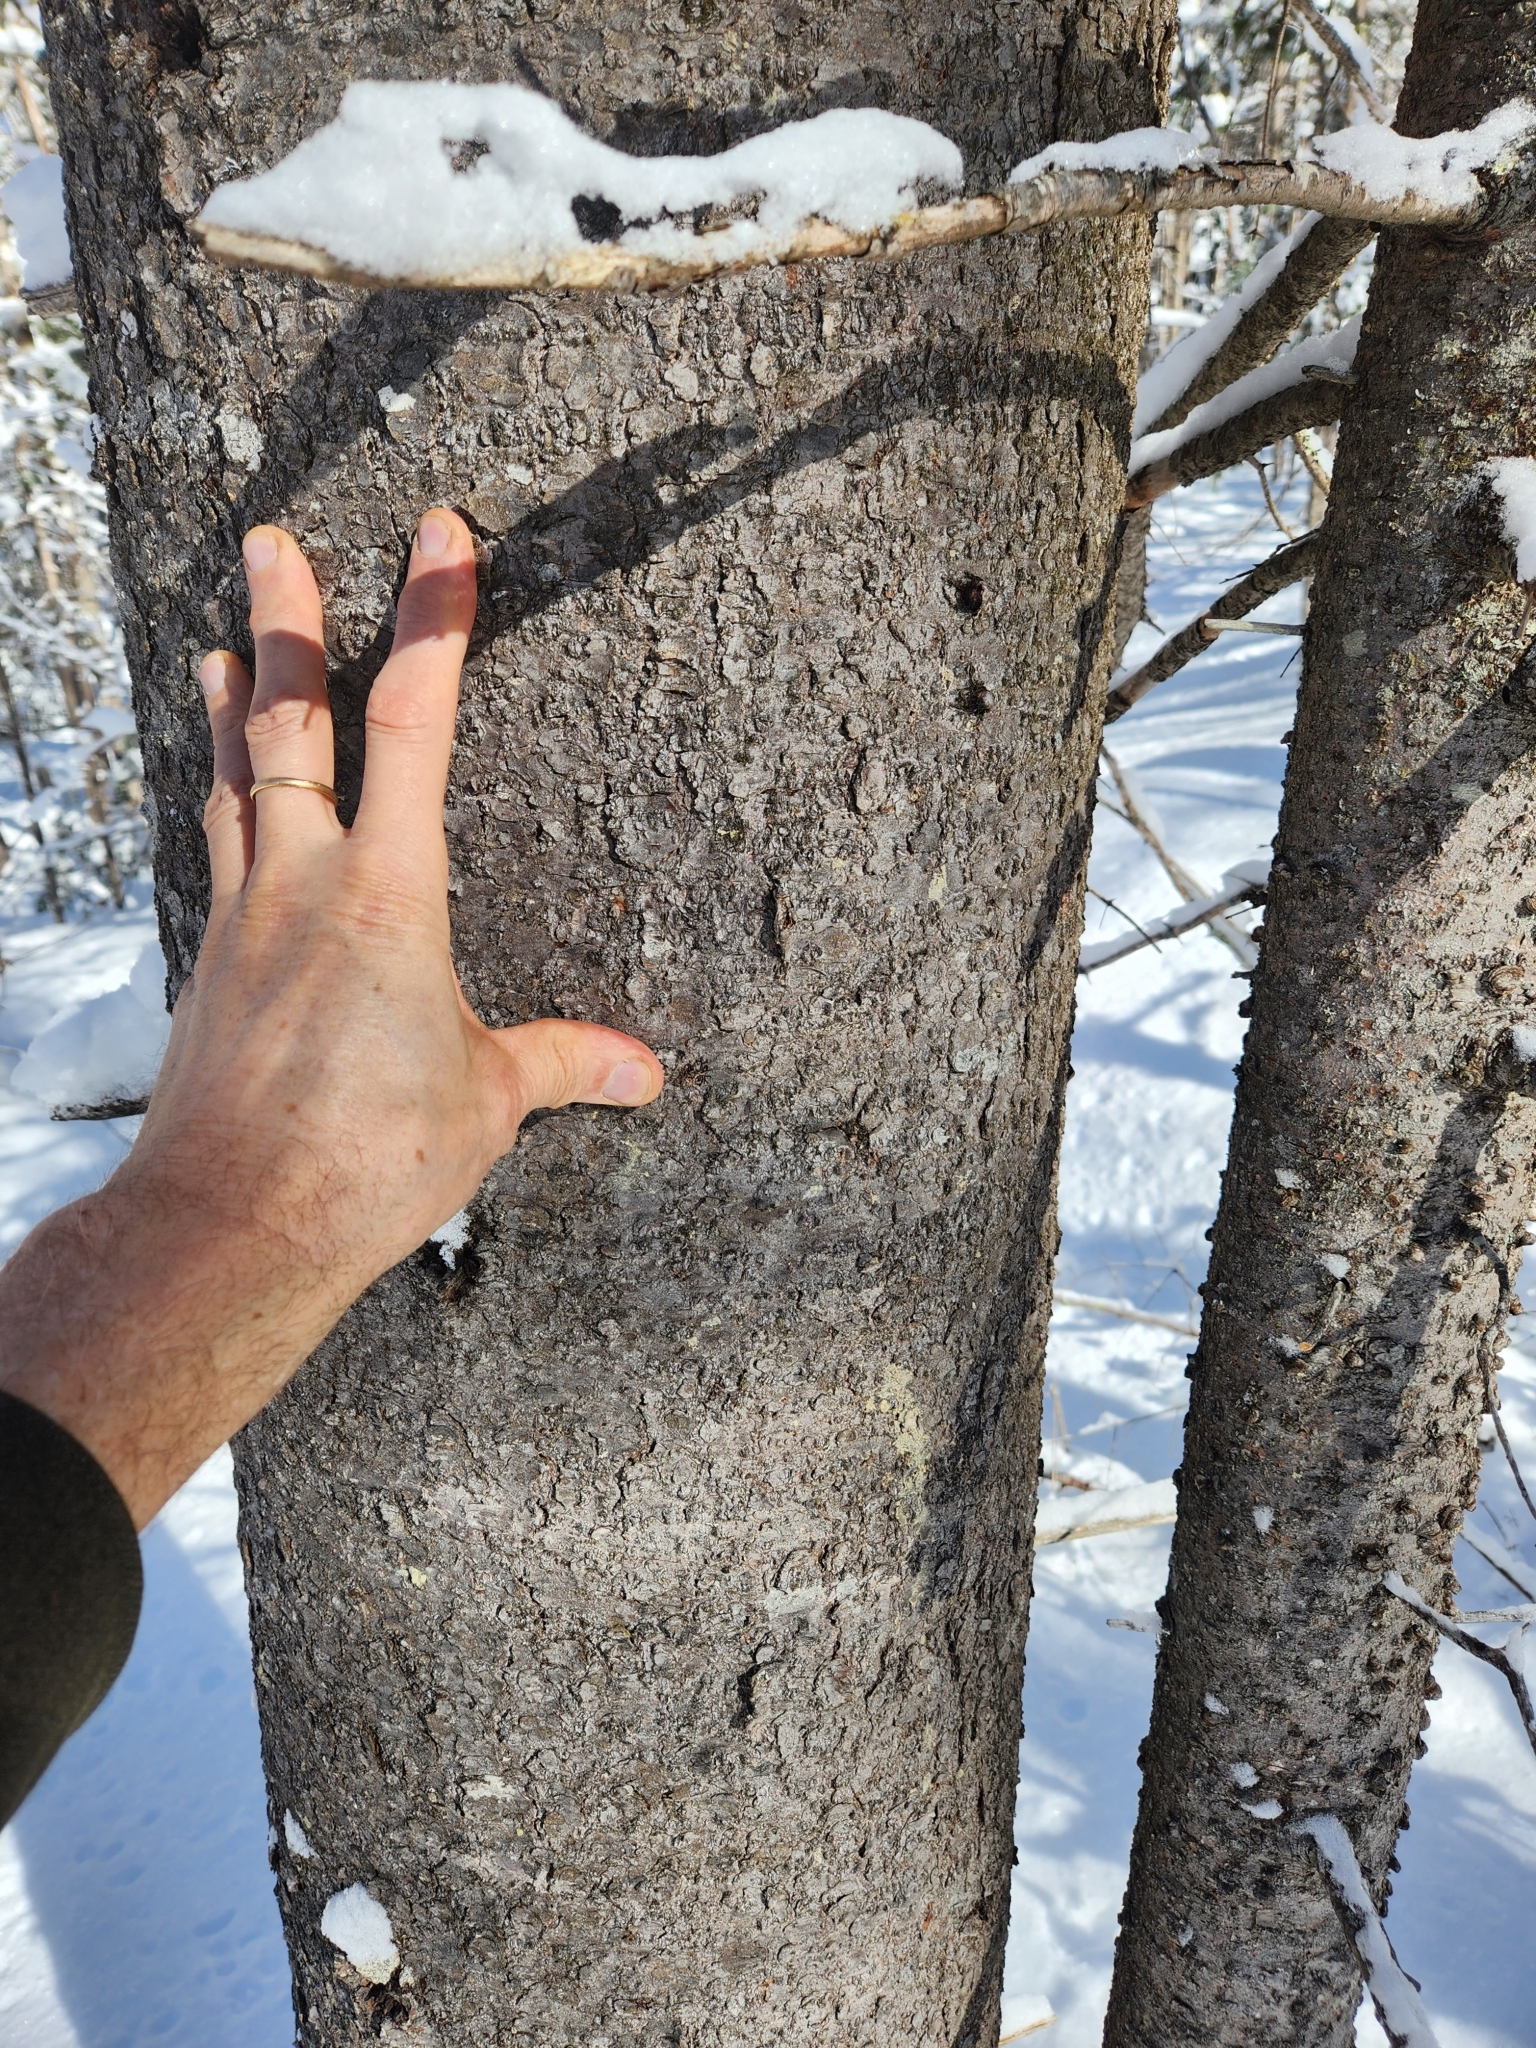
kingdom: Plantae
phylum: Tracheophyta
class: Pinopsida
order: Pinales
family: Pinaceae
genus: Abies
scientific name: Abies balsamea
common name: Balsam fir
